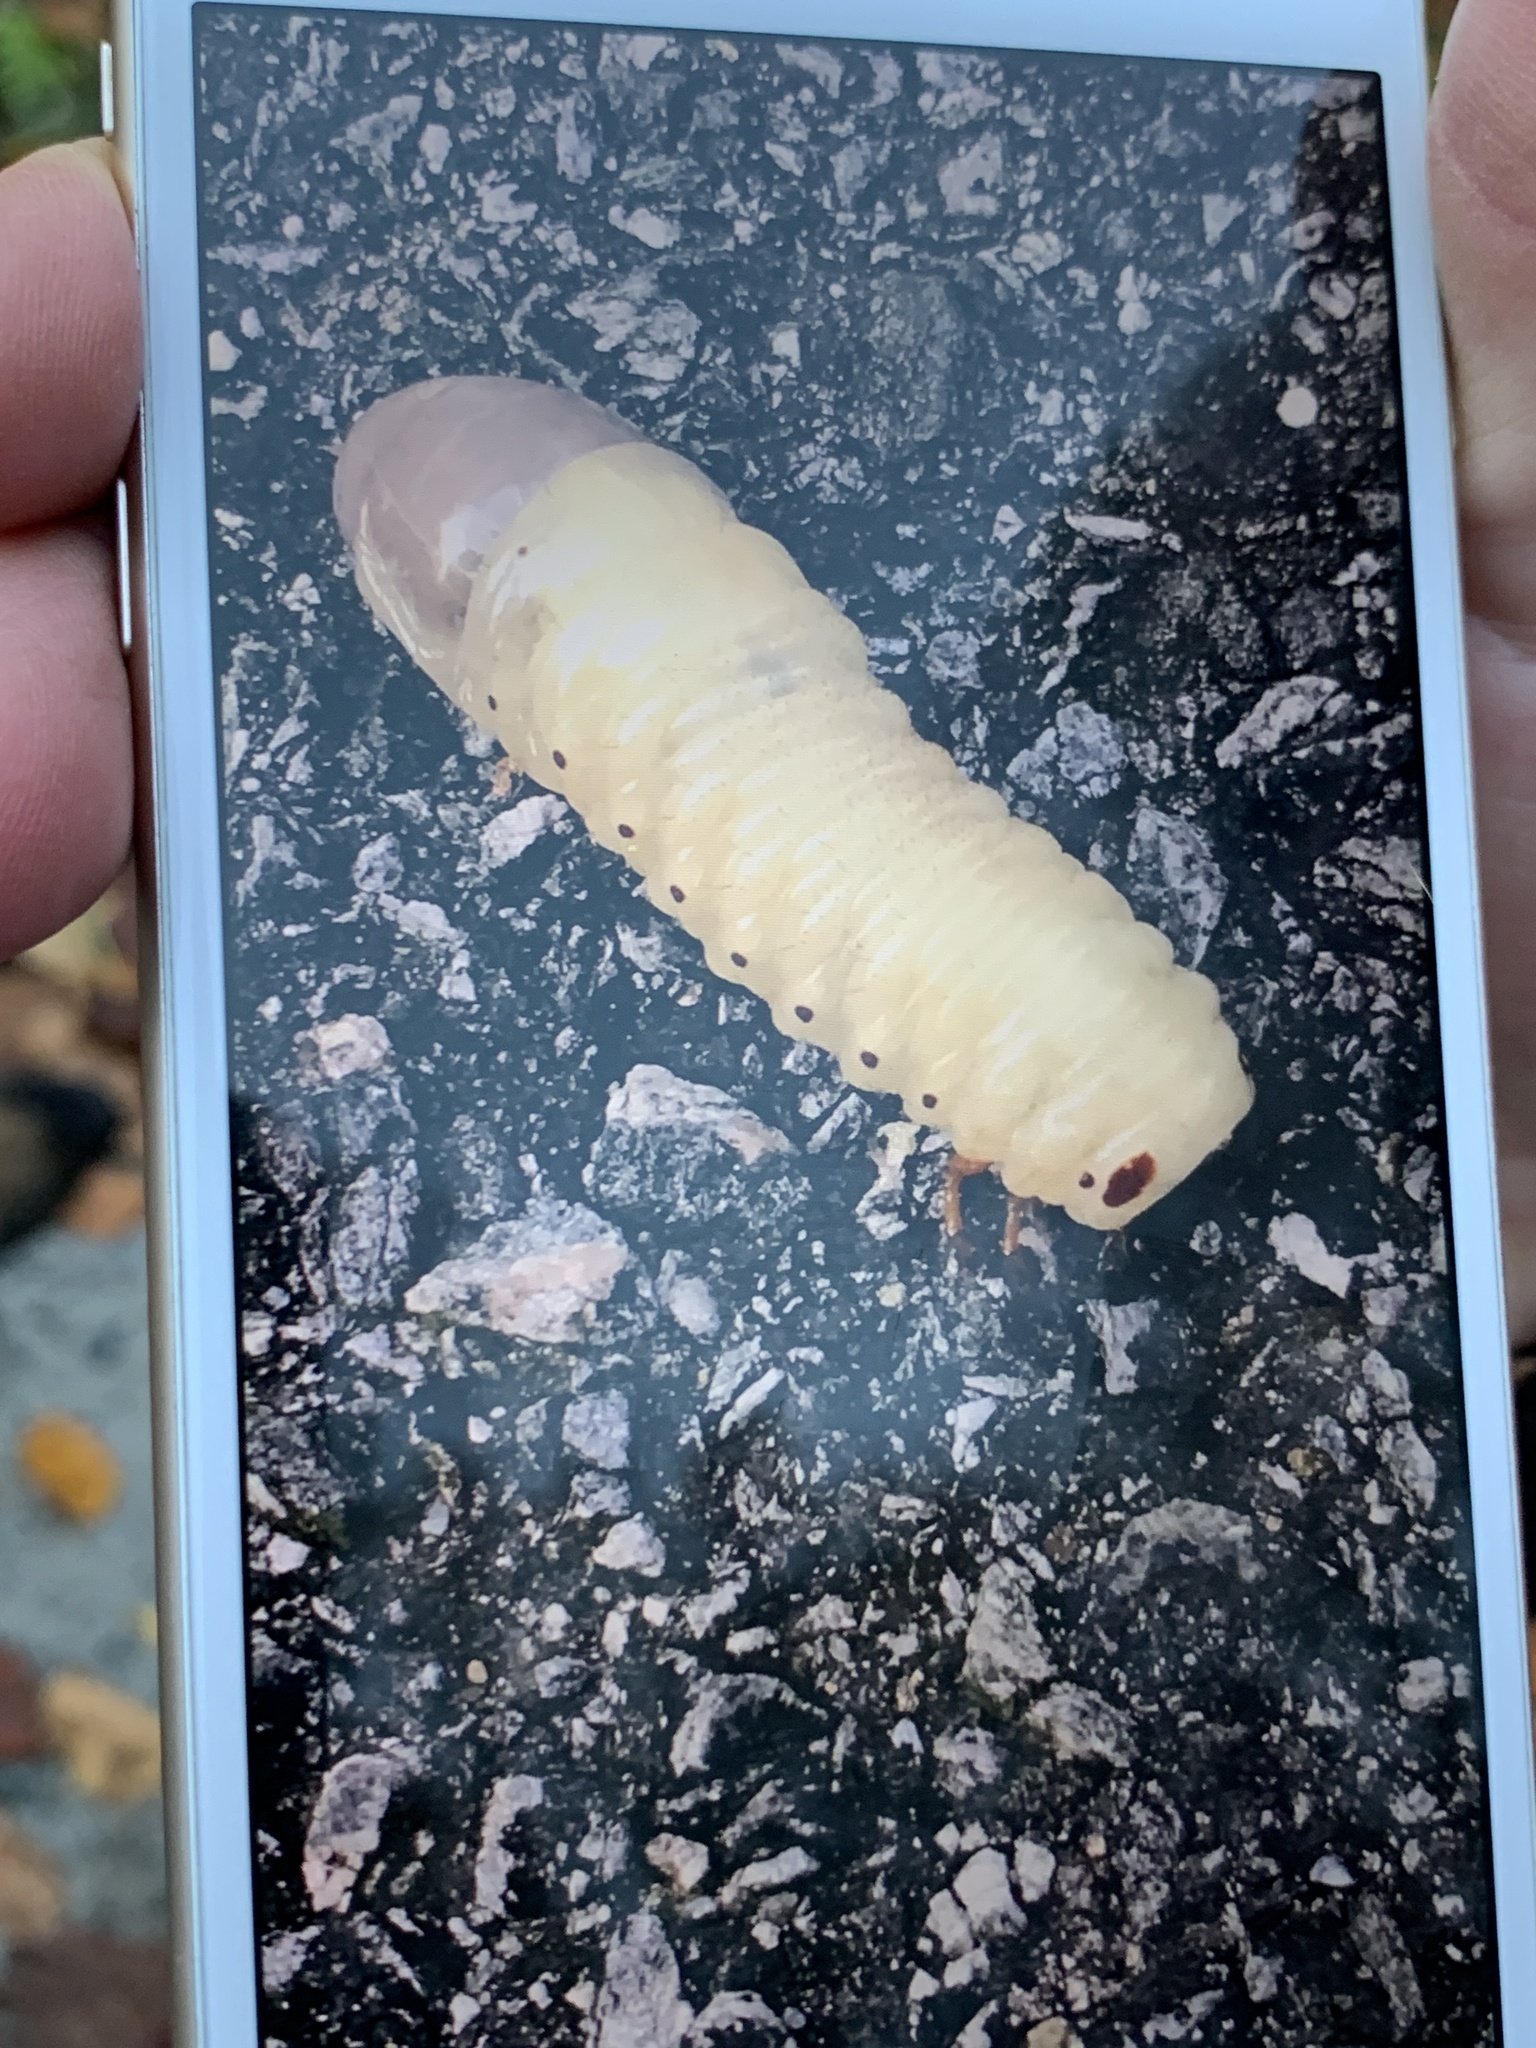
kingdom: Animalia
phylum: Arthropoda
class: Insecta
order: Coleoptera
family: Scarabaeidae
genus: Dynastes
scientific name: Dynastes tityus
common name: Eastern hercules beetle
